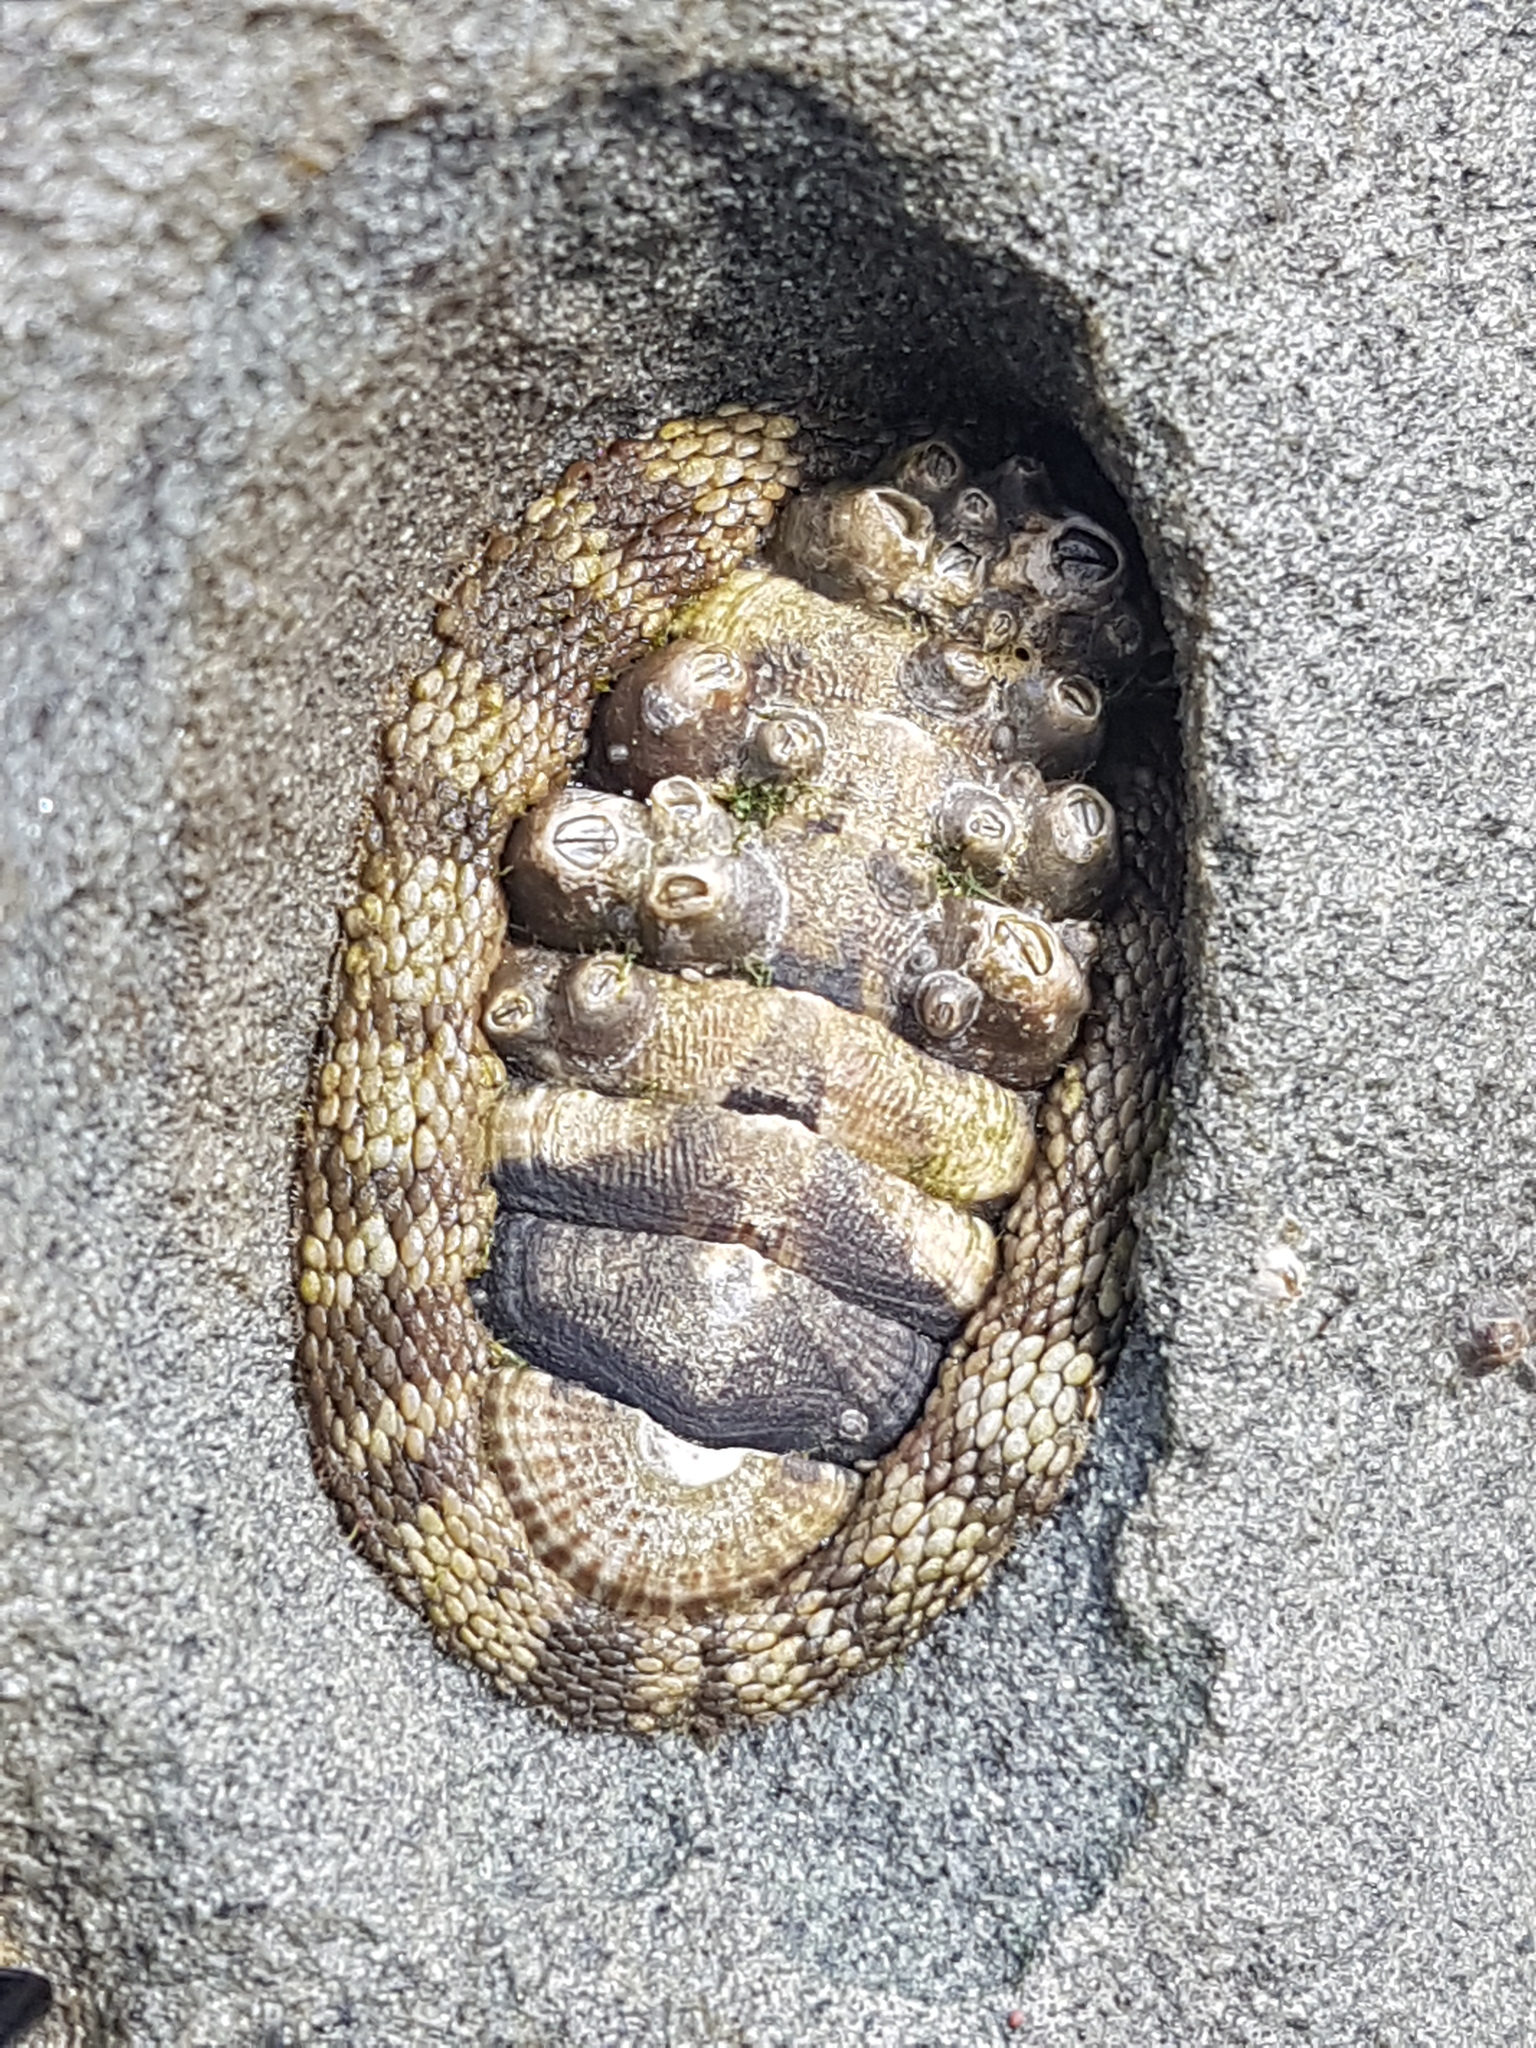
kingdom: Animalia
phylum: Mollusca
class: Polyplacophora
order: Chitonida
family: Chitonidae
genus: Sypharochiton
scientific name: Sypharochiton pelliserpentis
